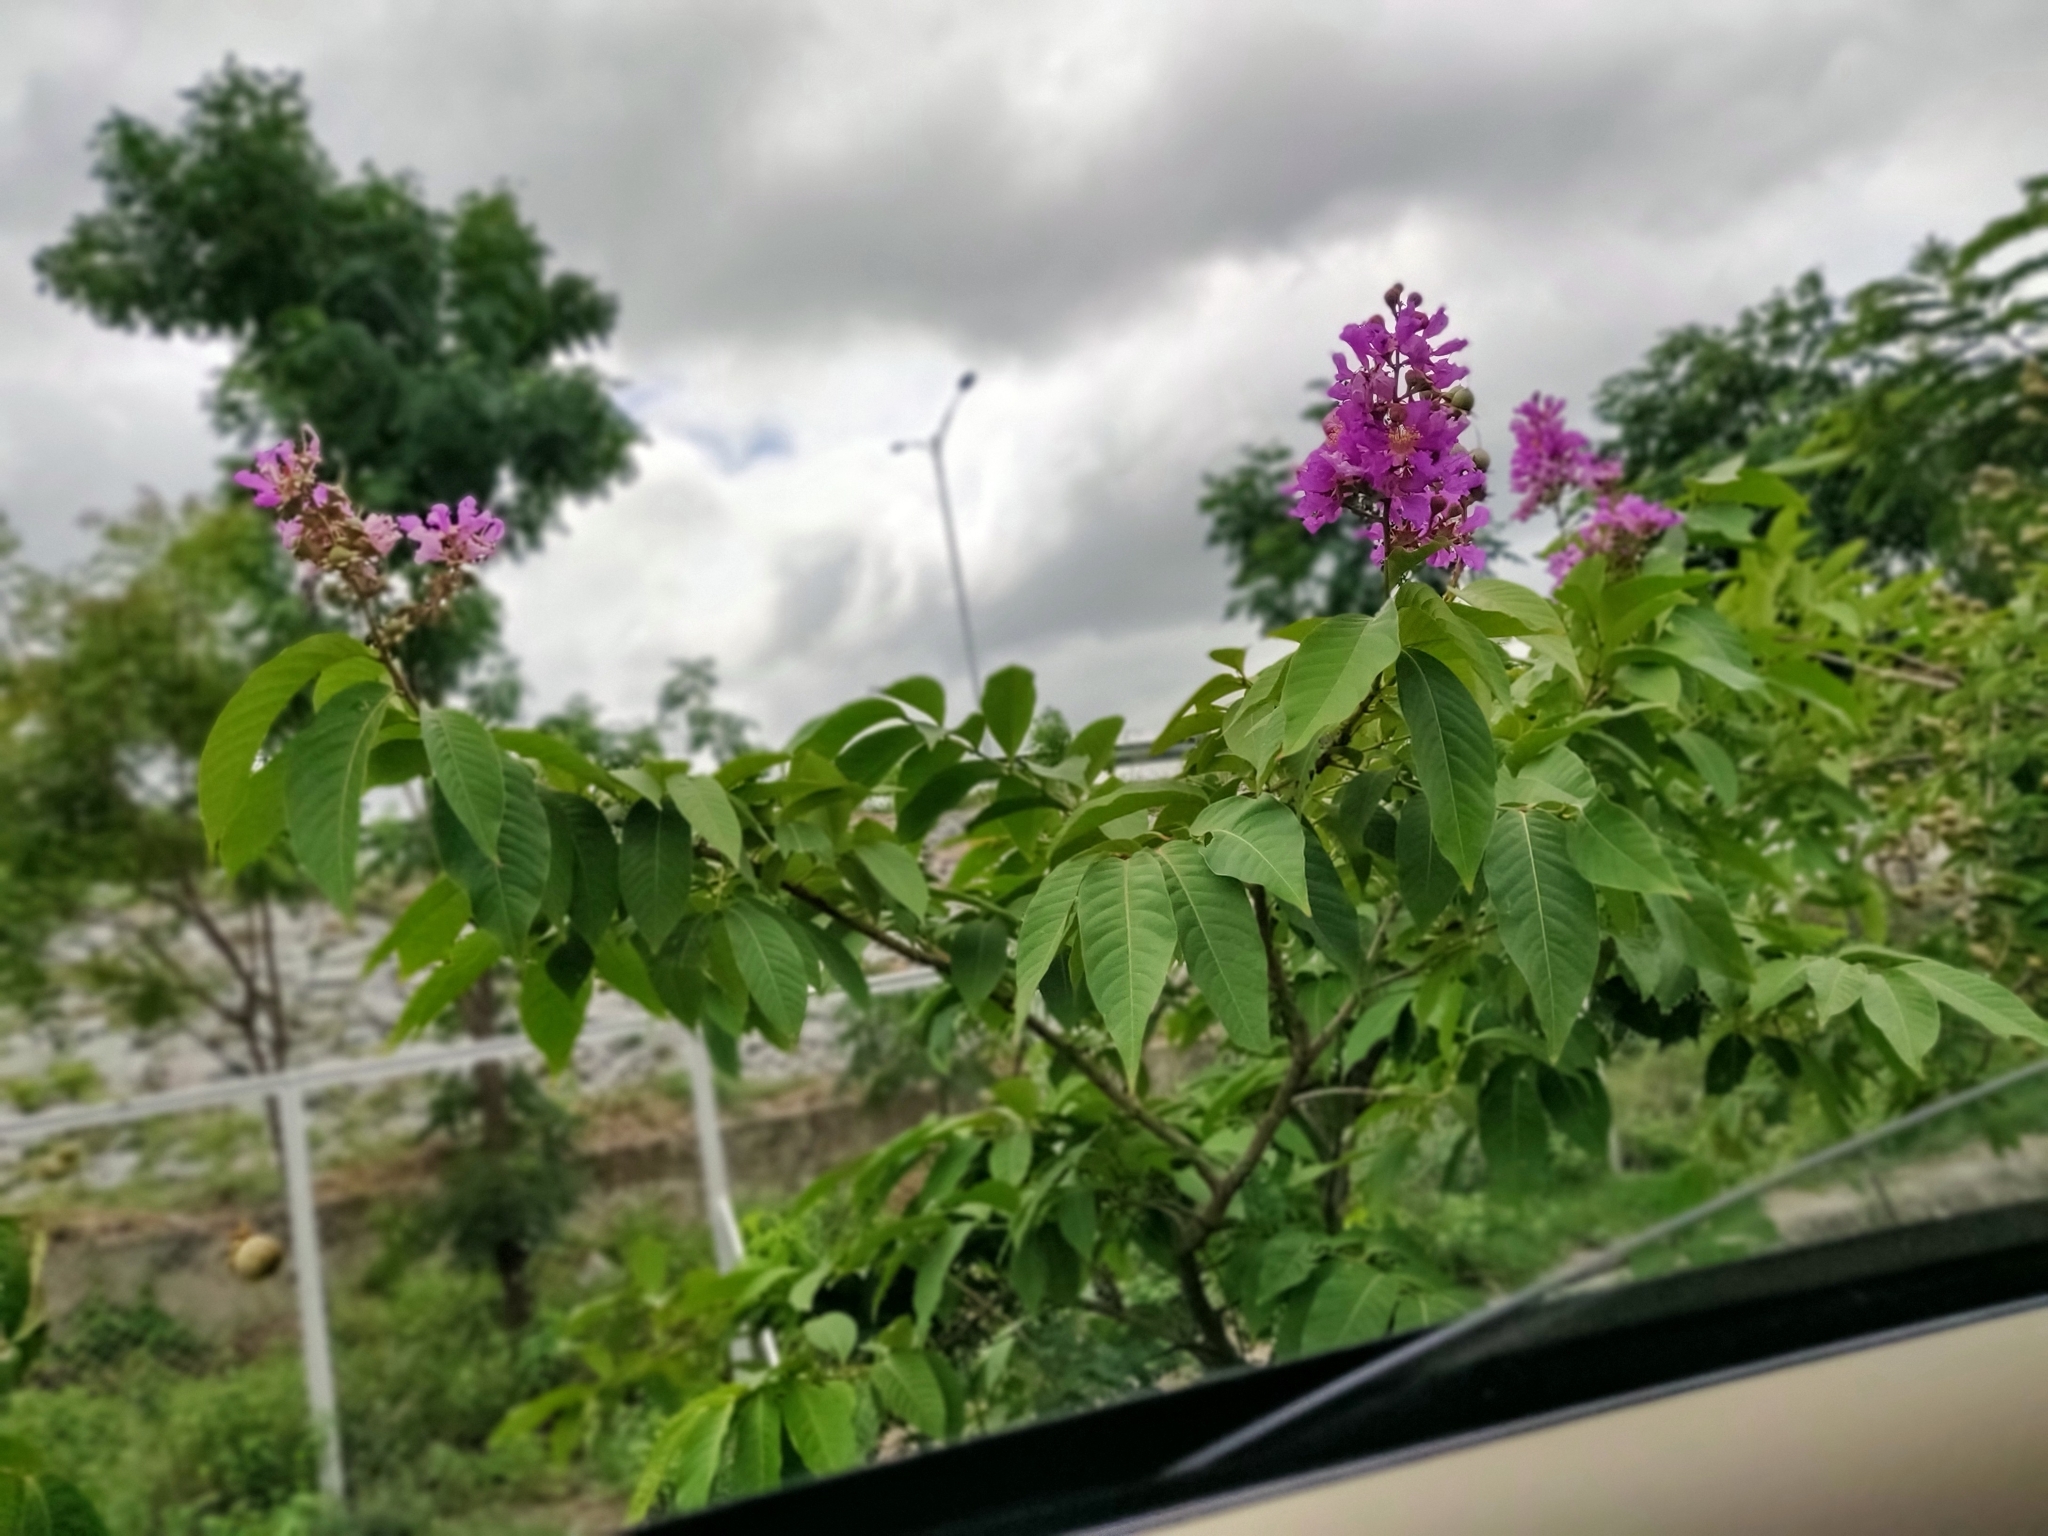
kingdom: Plantae
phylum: Tracheophyta
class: Magnoliopsida
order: Myrtales
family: Lythraceae
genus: Lagerstroemia
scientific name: Lagerstroemia speciosa
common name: Queen's crape-myrtle
